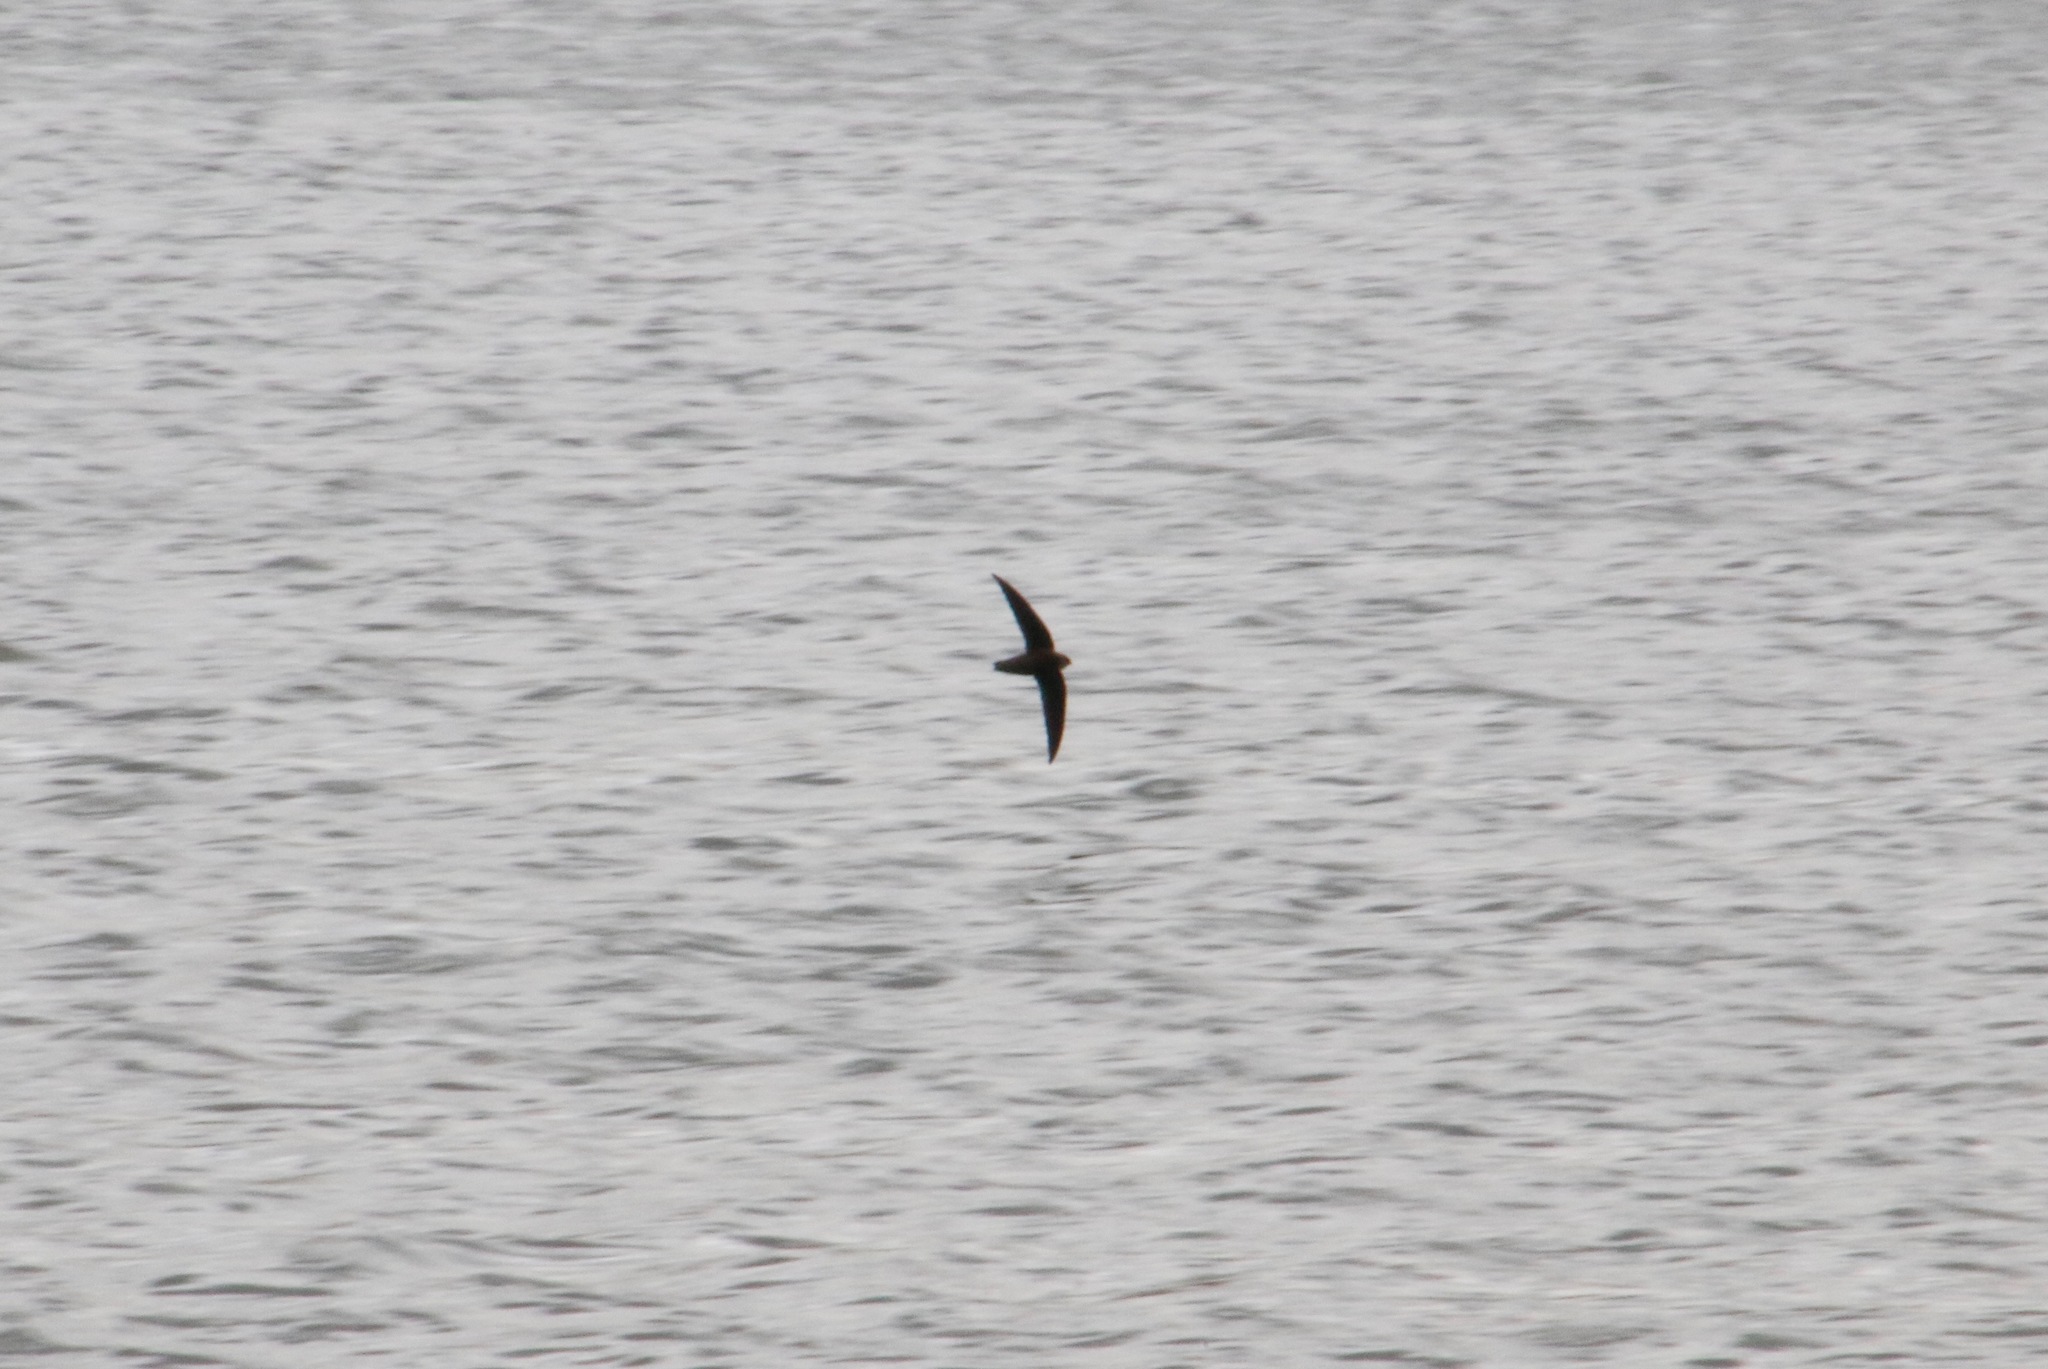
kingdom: Animalia
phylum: Chordata
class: Aves
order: Apodiformes
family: Apodidae
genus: Chaetura
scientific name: Chaetura pelagica
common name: Chimney swift
